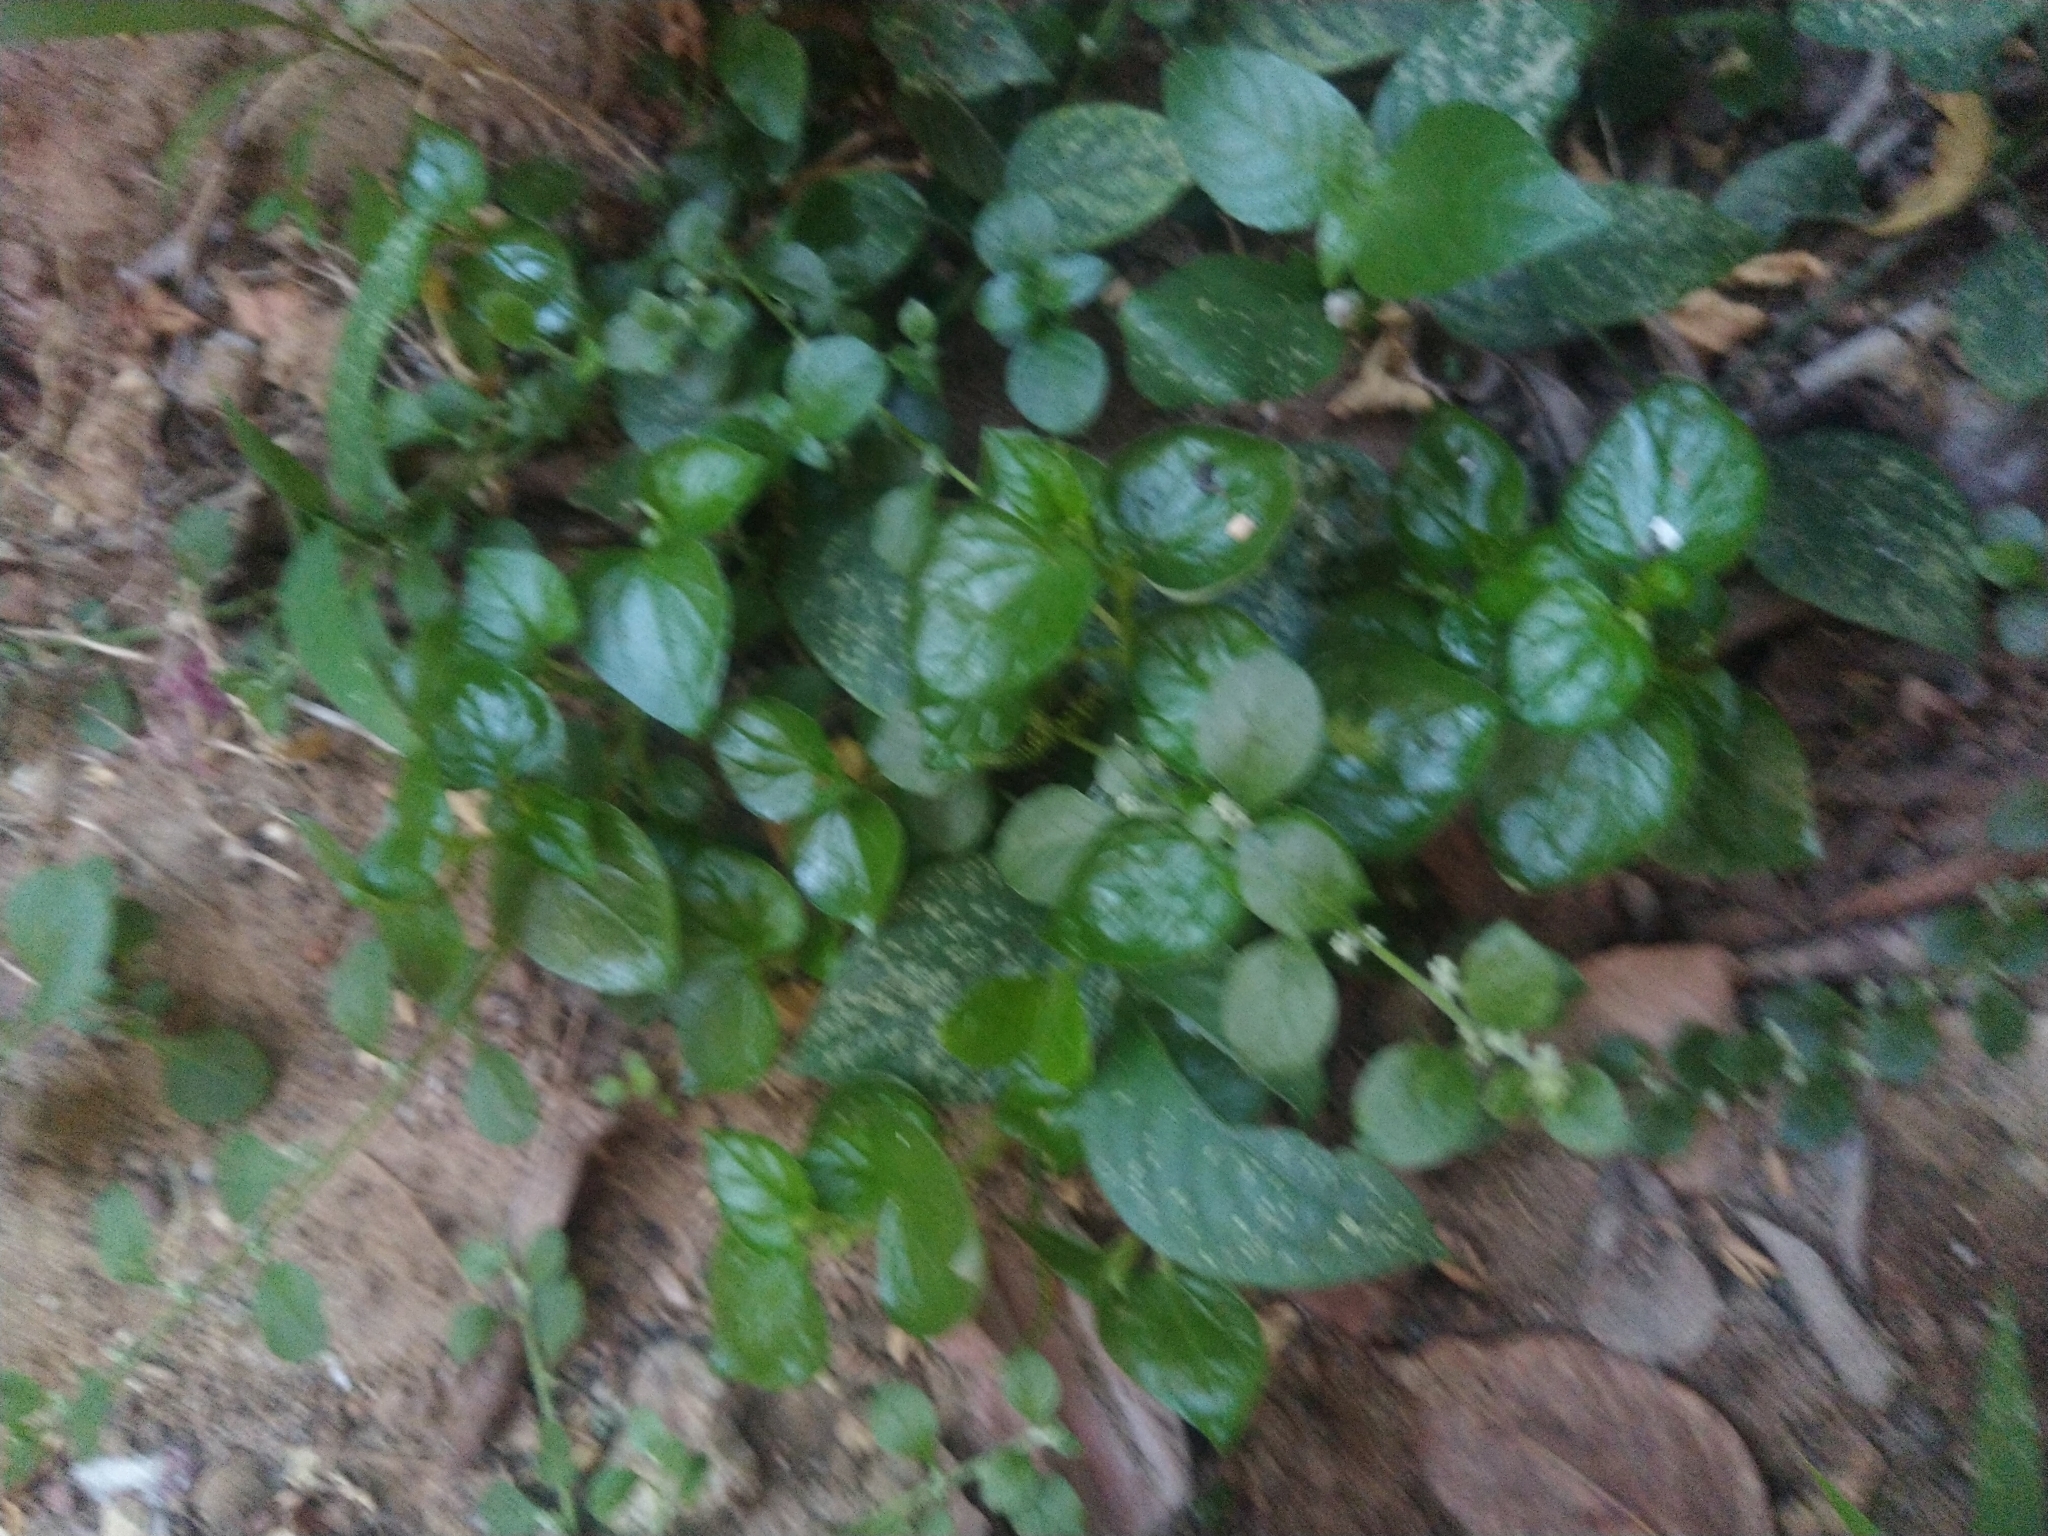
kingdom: Plantae
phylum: Tracheophyta
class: Magnoliopsida
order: Piperales
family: Piperaceae
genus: Peperomia
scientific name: Peperomia pellucida
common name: Man to man
